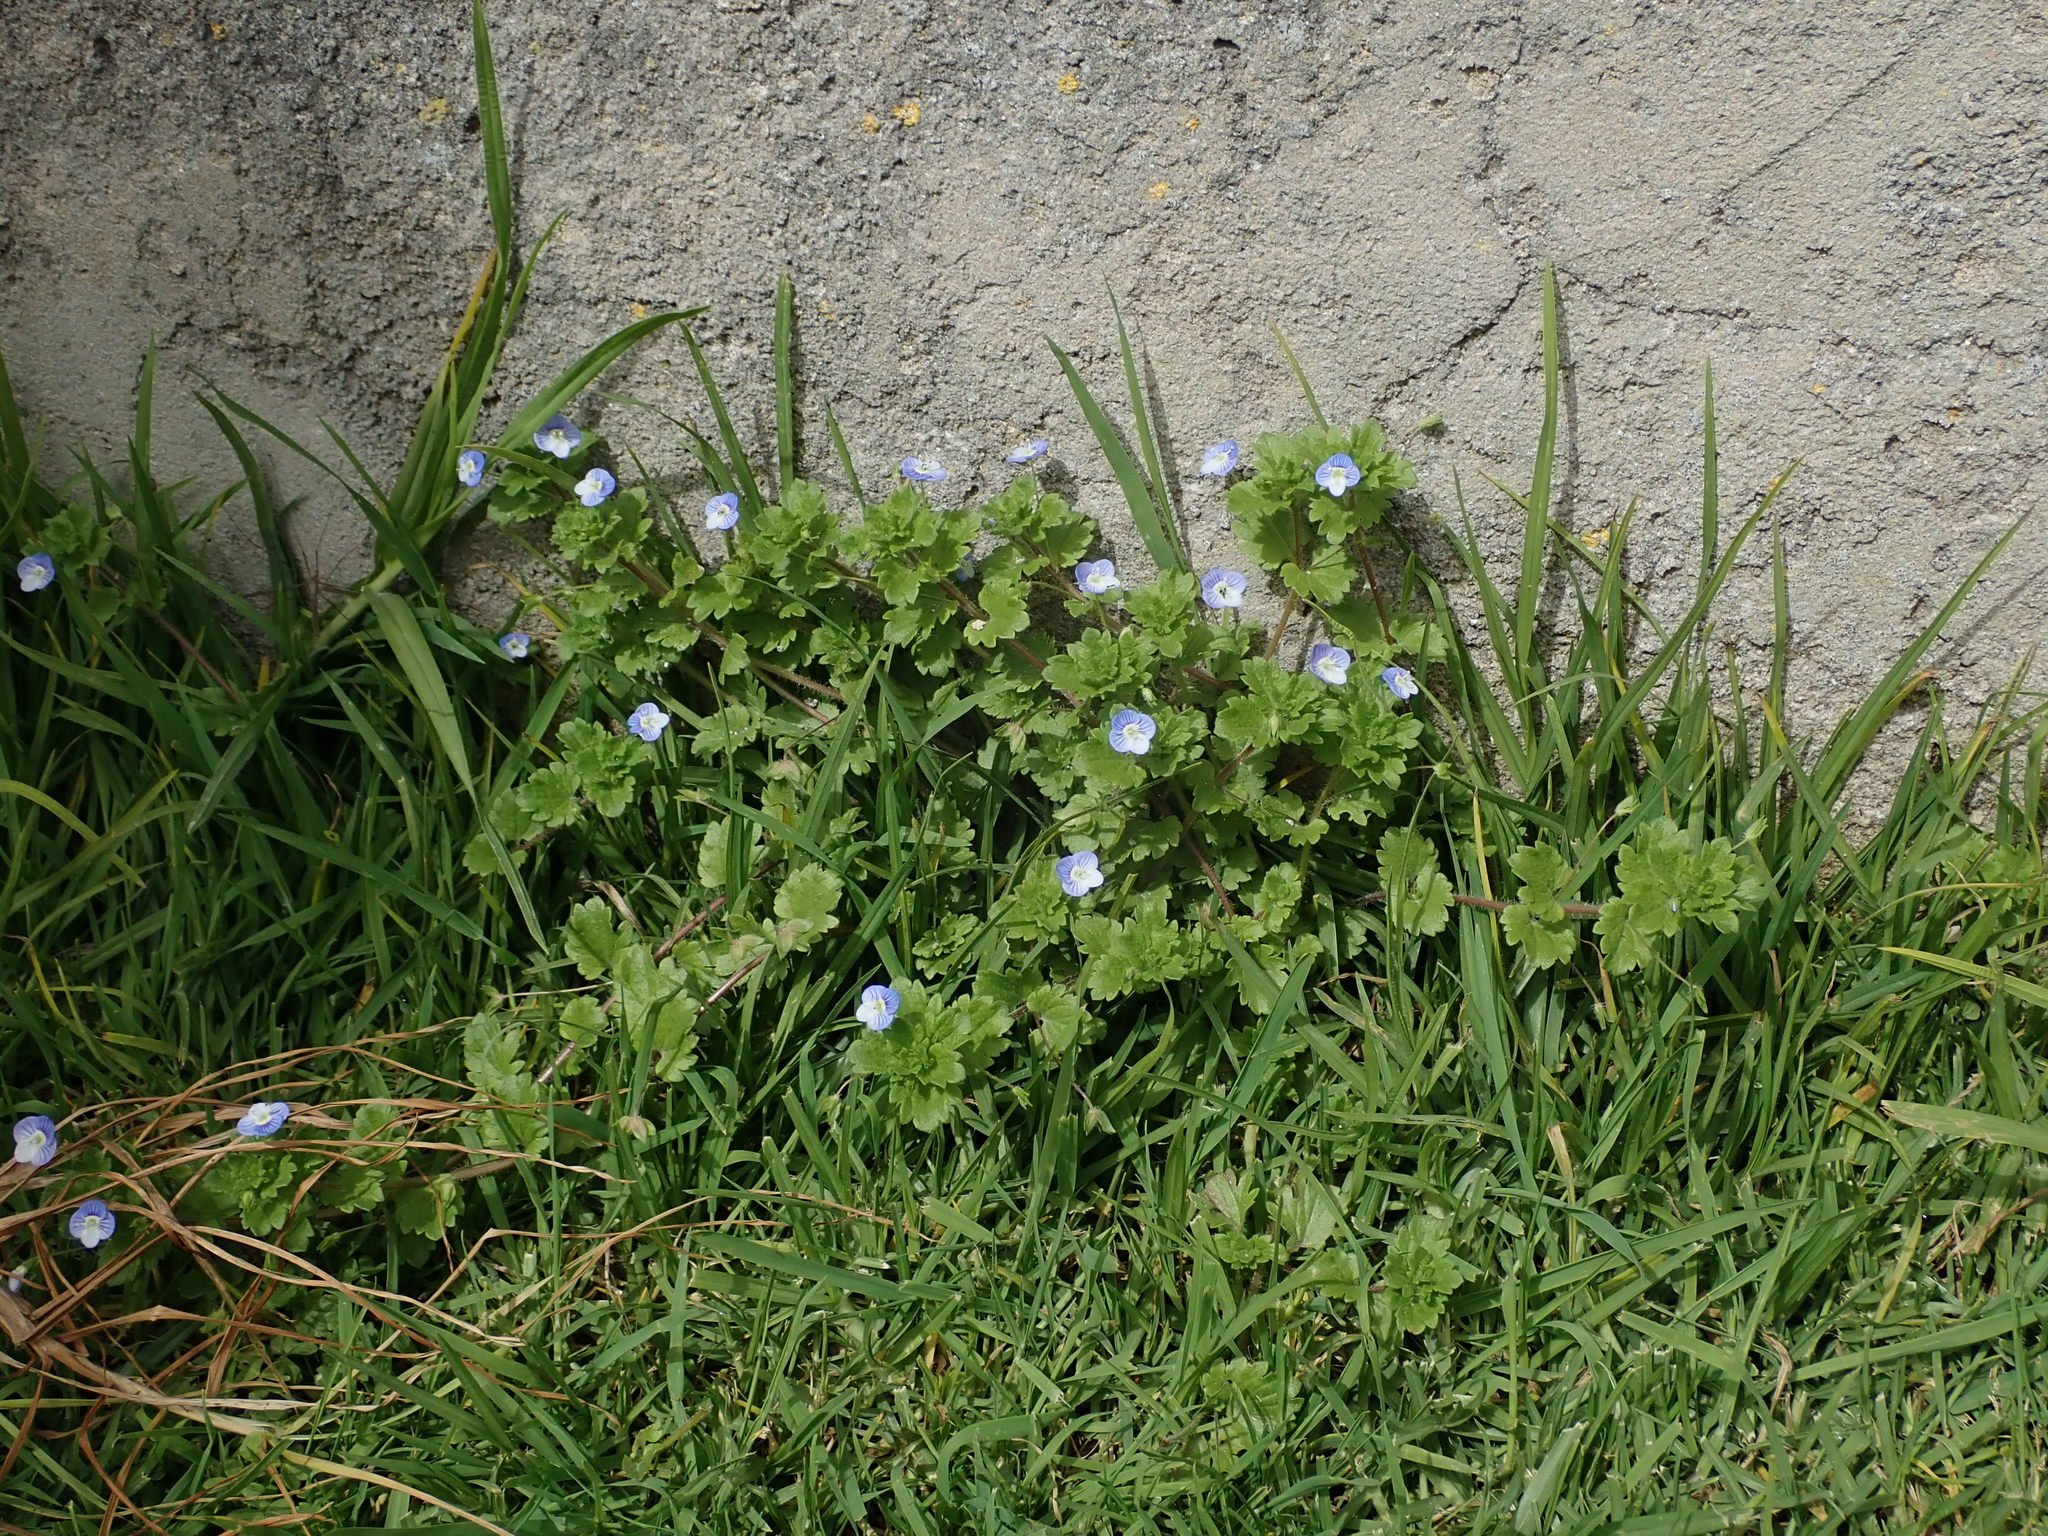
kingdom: Plantae
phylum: Tracheophyta
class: Magnoliopsida
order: Lamiales
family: Plantaginaceae
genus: Veronica
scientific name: Veronica persica
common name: Common field-speedwell
